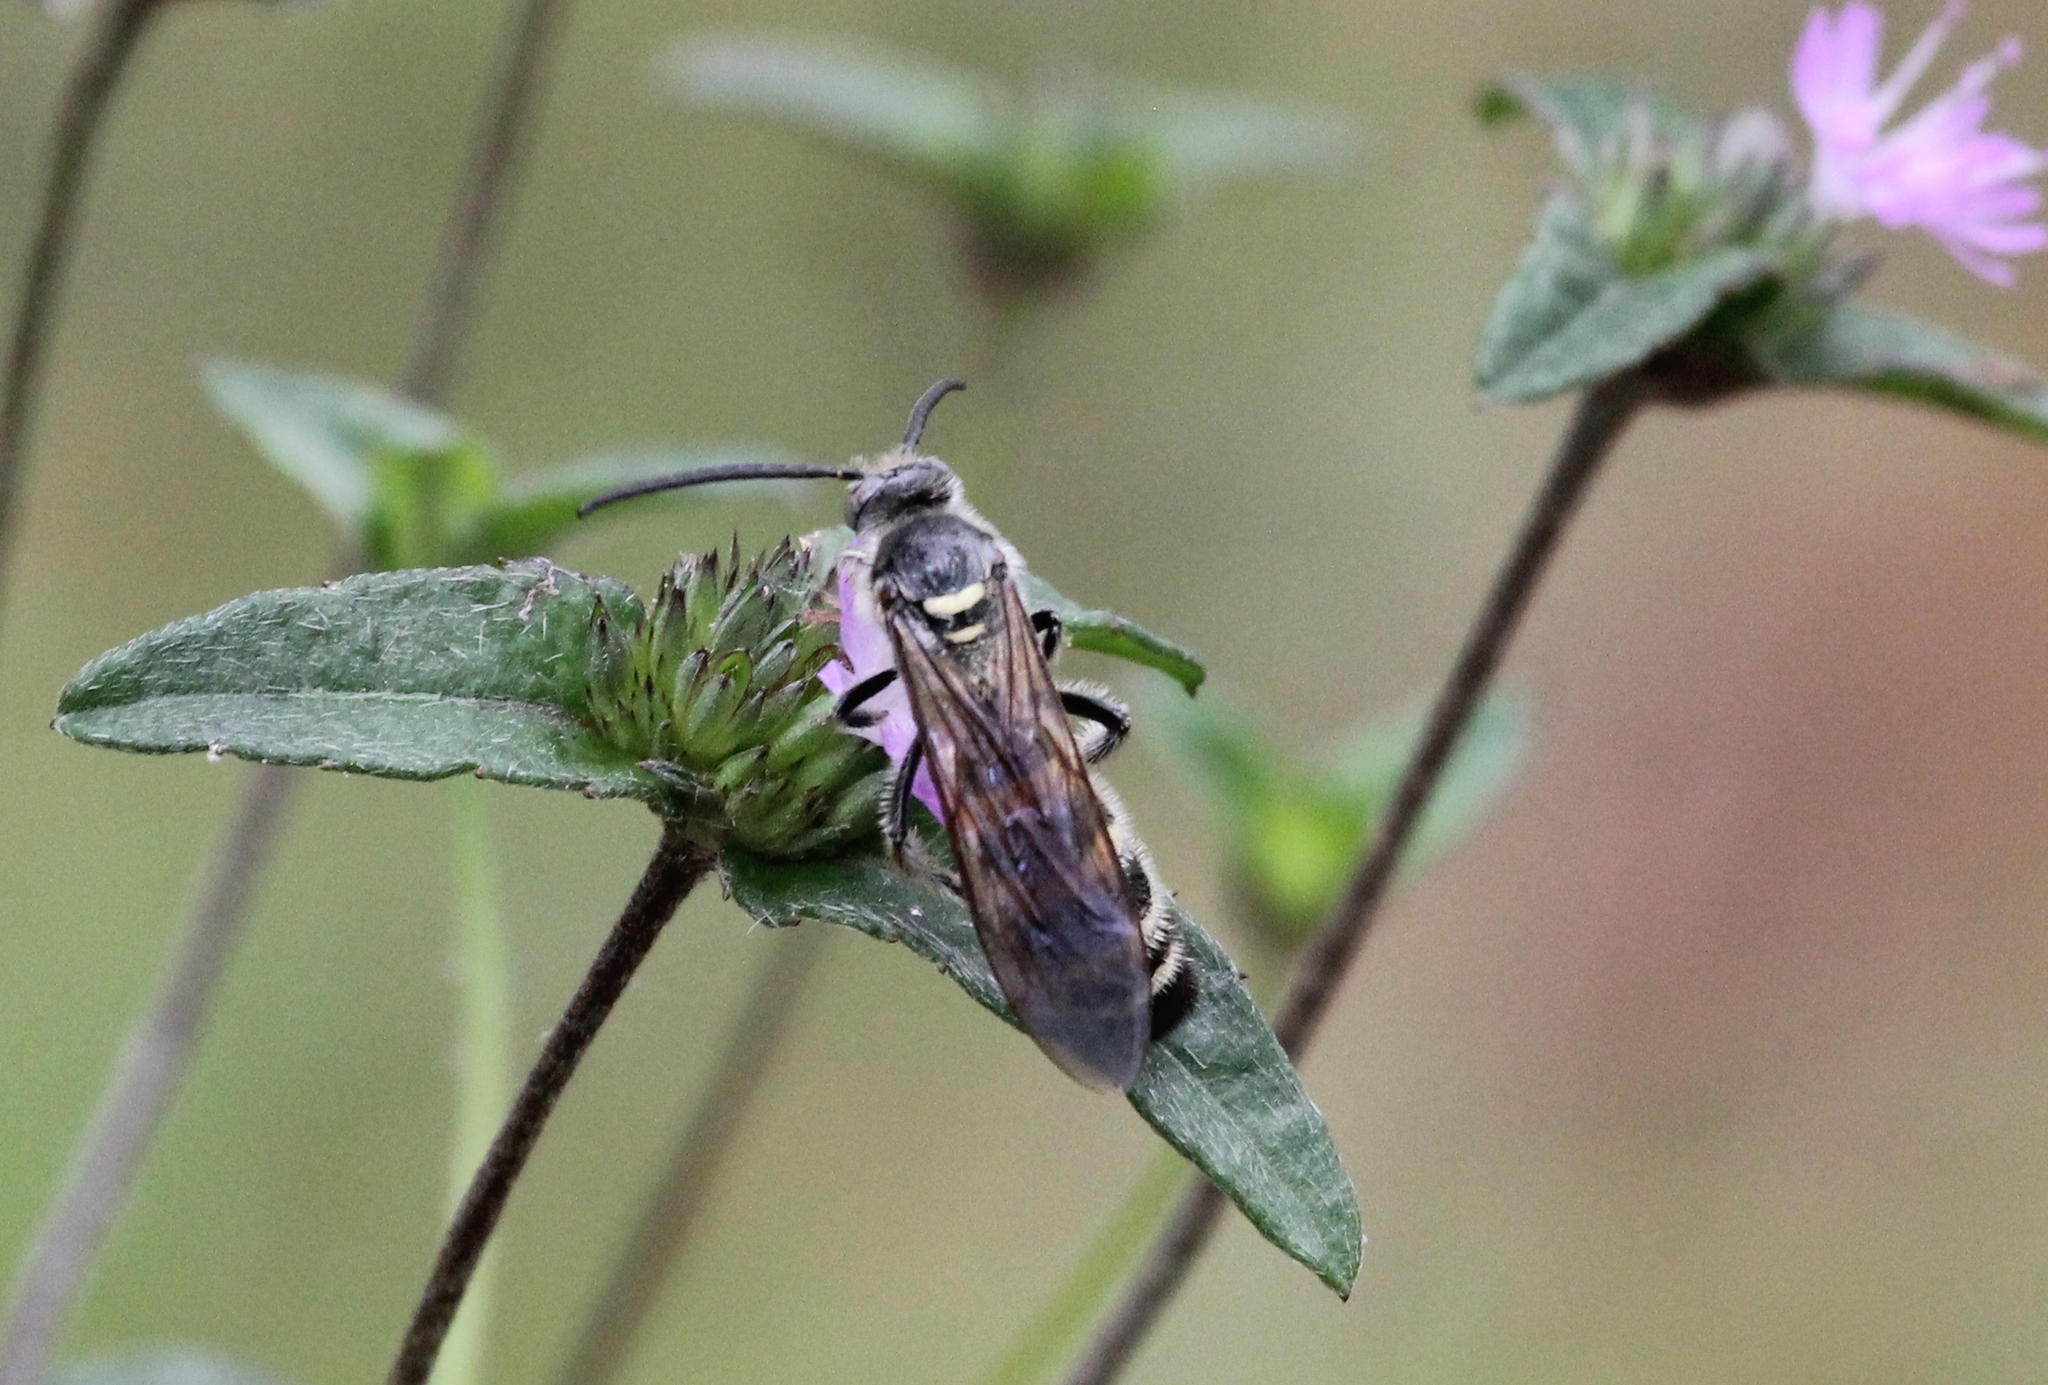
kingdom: Animalia
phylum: Arthropoda
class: Insecta
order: Hymenoptera
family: Scoliidae
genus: Dielis
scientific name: Dielis
